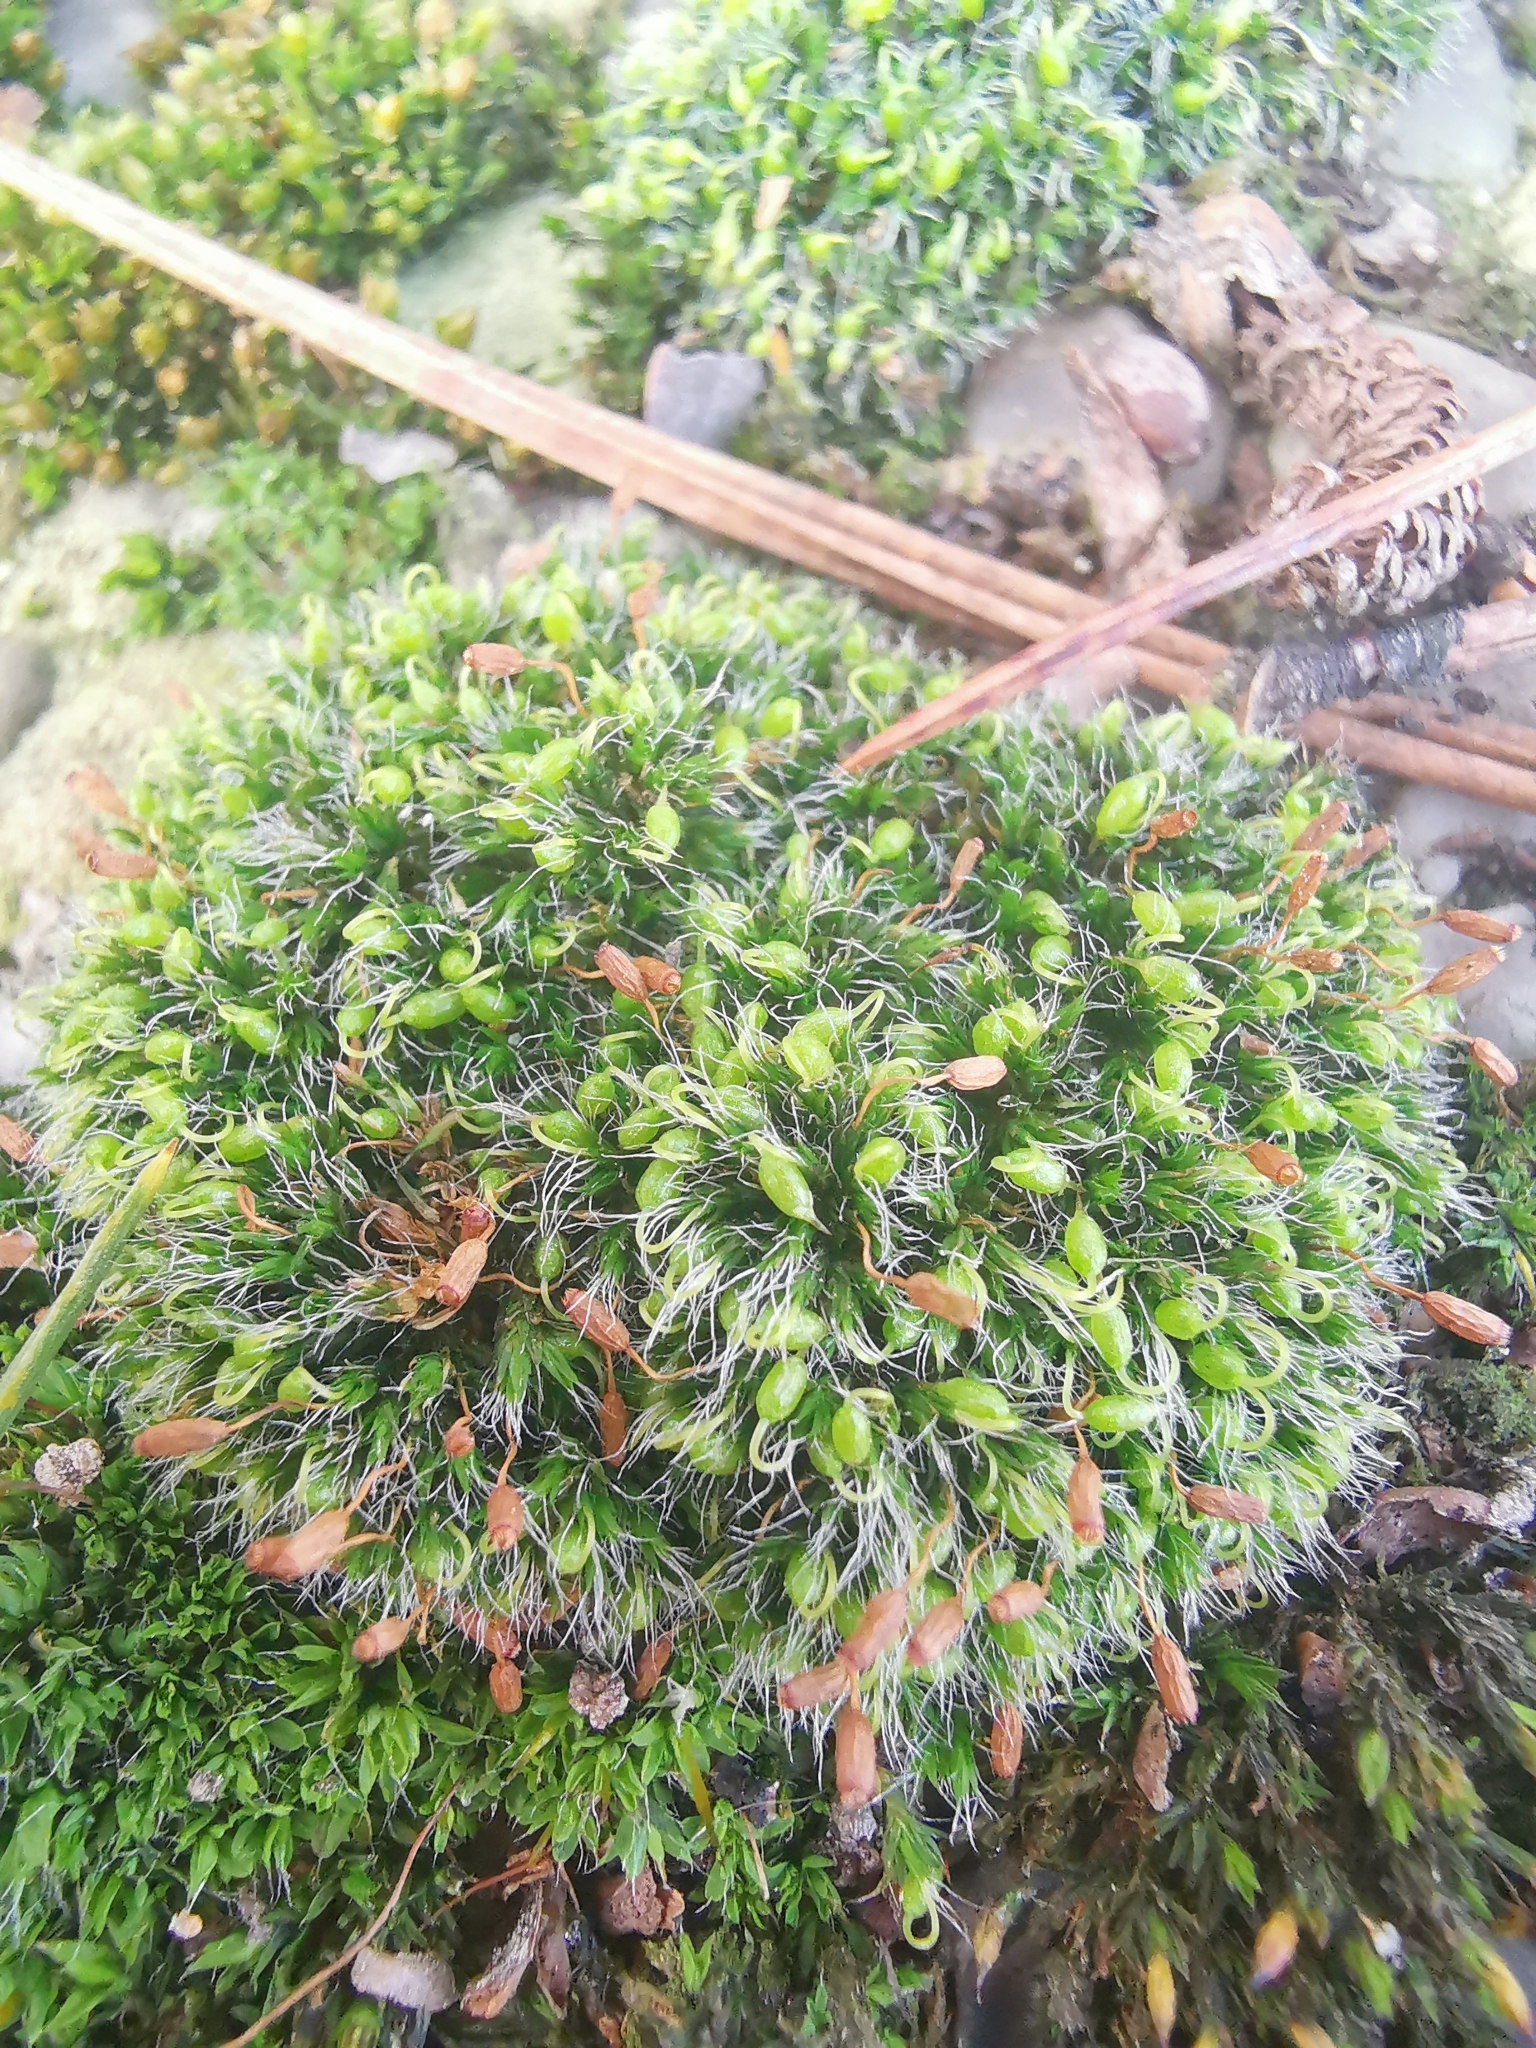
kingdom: Plantae
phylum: Bryophyta
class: Bryopsida
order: Grimmiales
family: Grimmiaceae
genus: Grimmia
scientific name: Grimmia pulvinata
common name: Grey-cushioned grimmia
